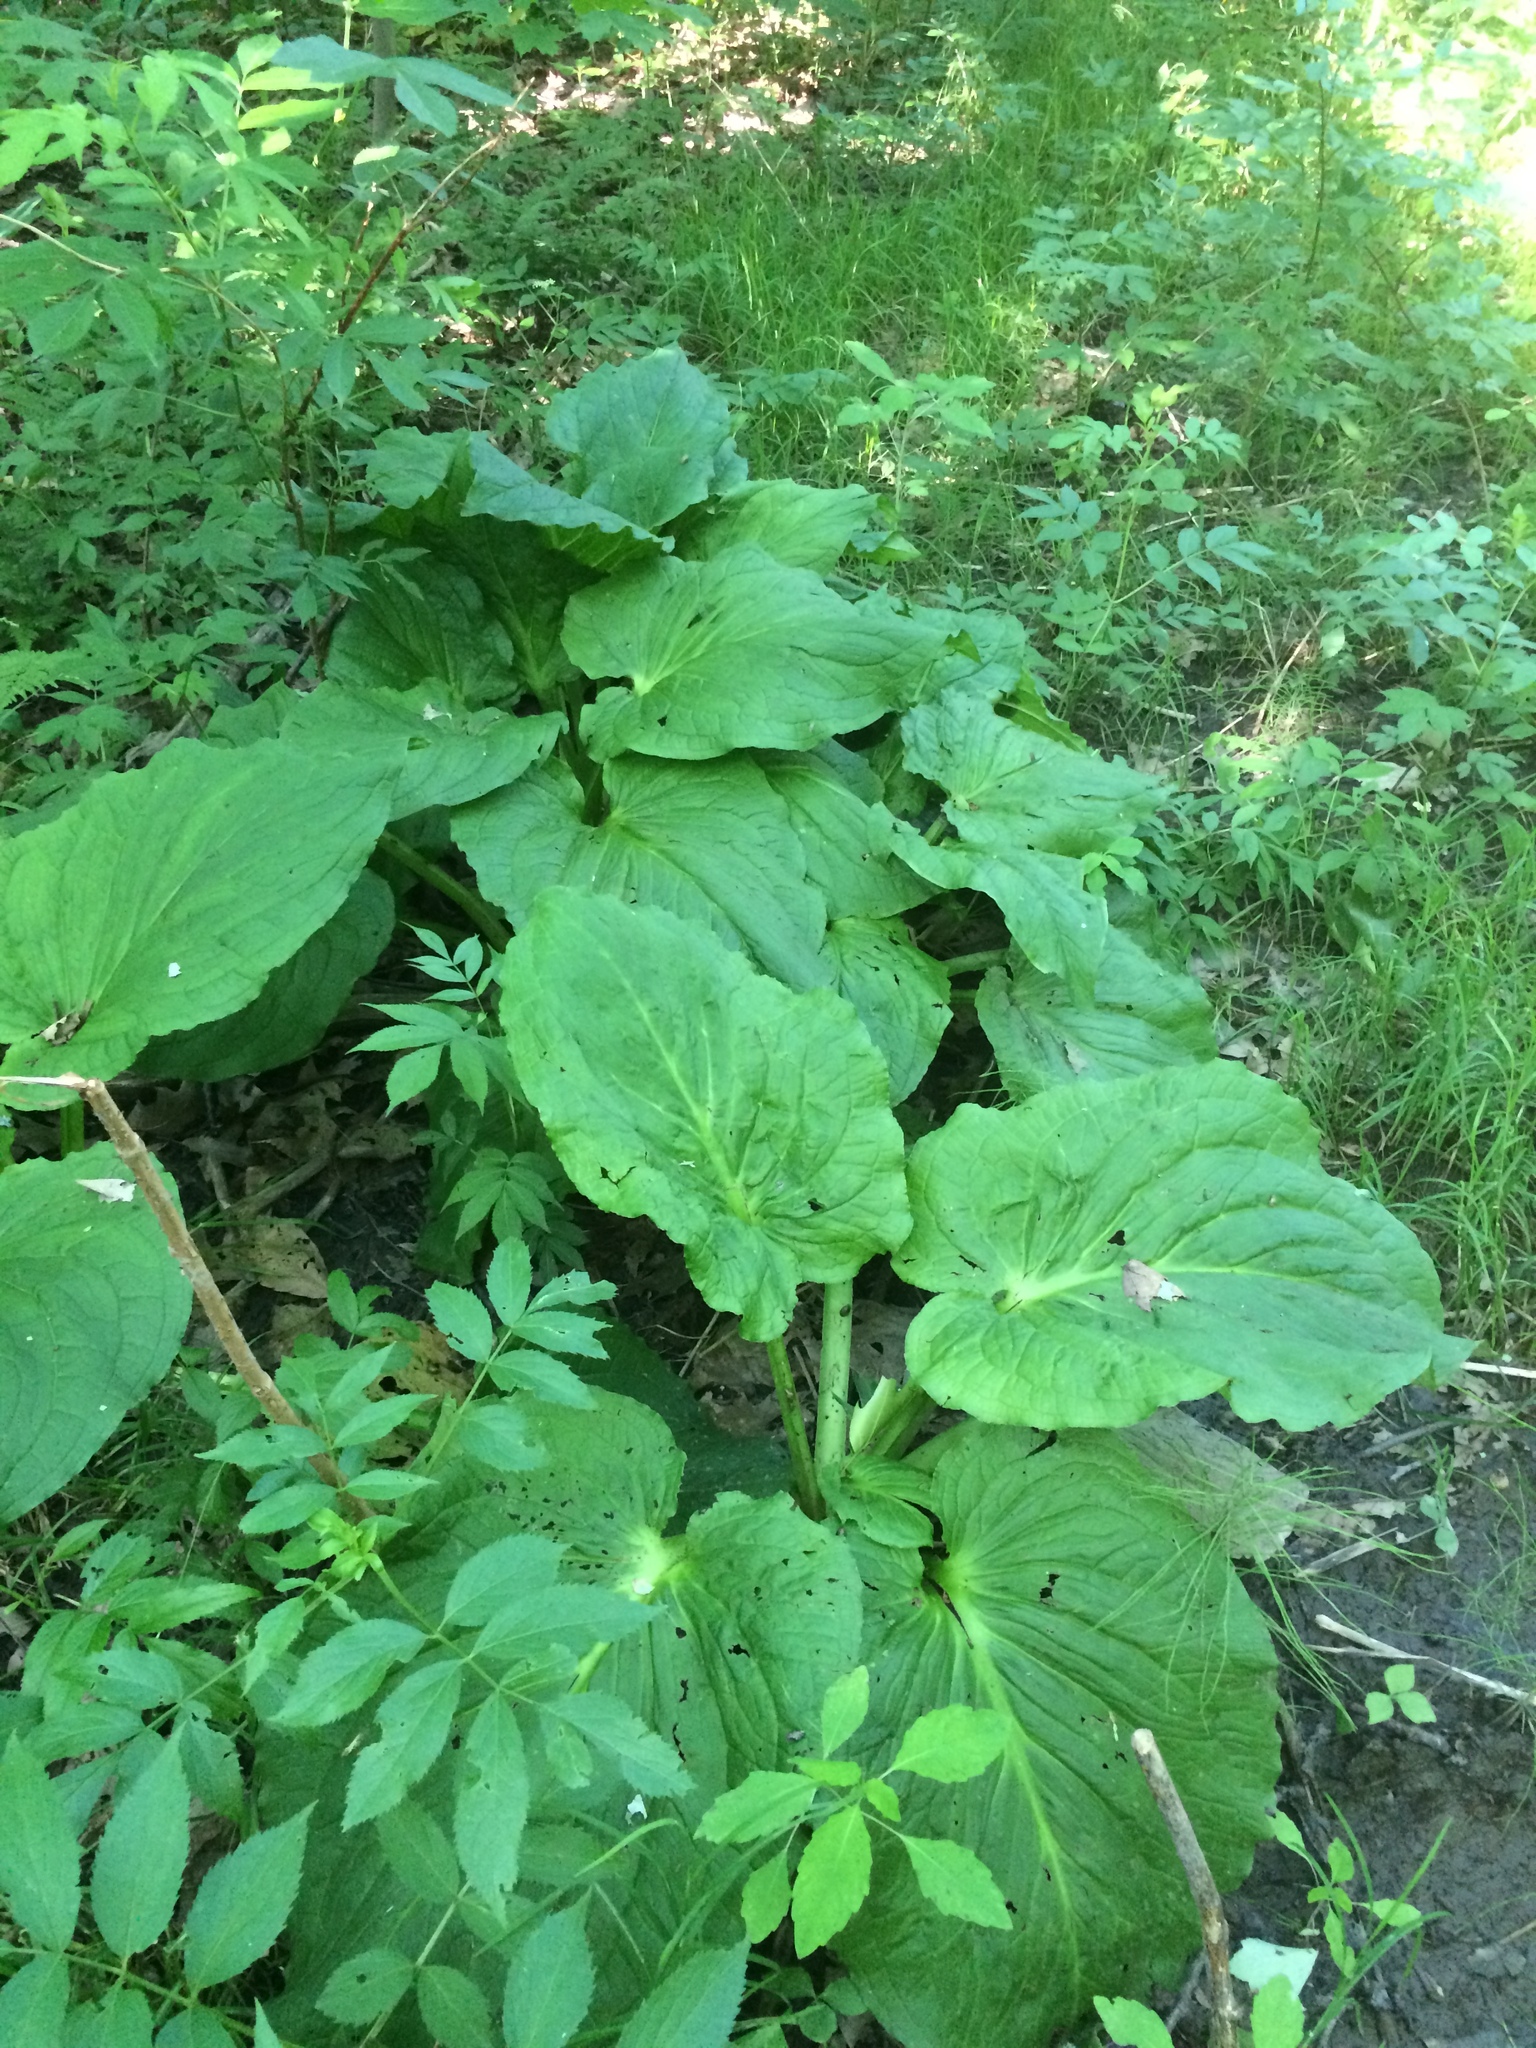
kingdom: Plantae
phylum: Tracheophyta
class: Liliopsida
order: Alismatales
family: Araceae
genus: Symplocarpus
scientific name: Symplocarpus foetidus
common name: Eastern skunk cabbage
